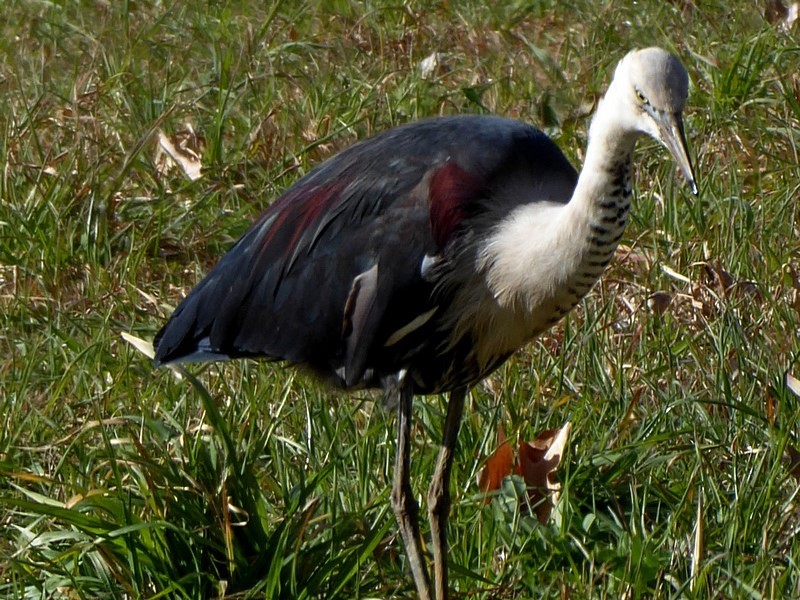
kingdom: Animalia
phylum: Chordata
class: Aves
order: Pelecaniformes
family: Ardeidae
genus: Ardea
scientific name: Ardea pacifica
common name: White-necked heron
